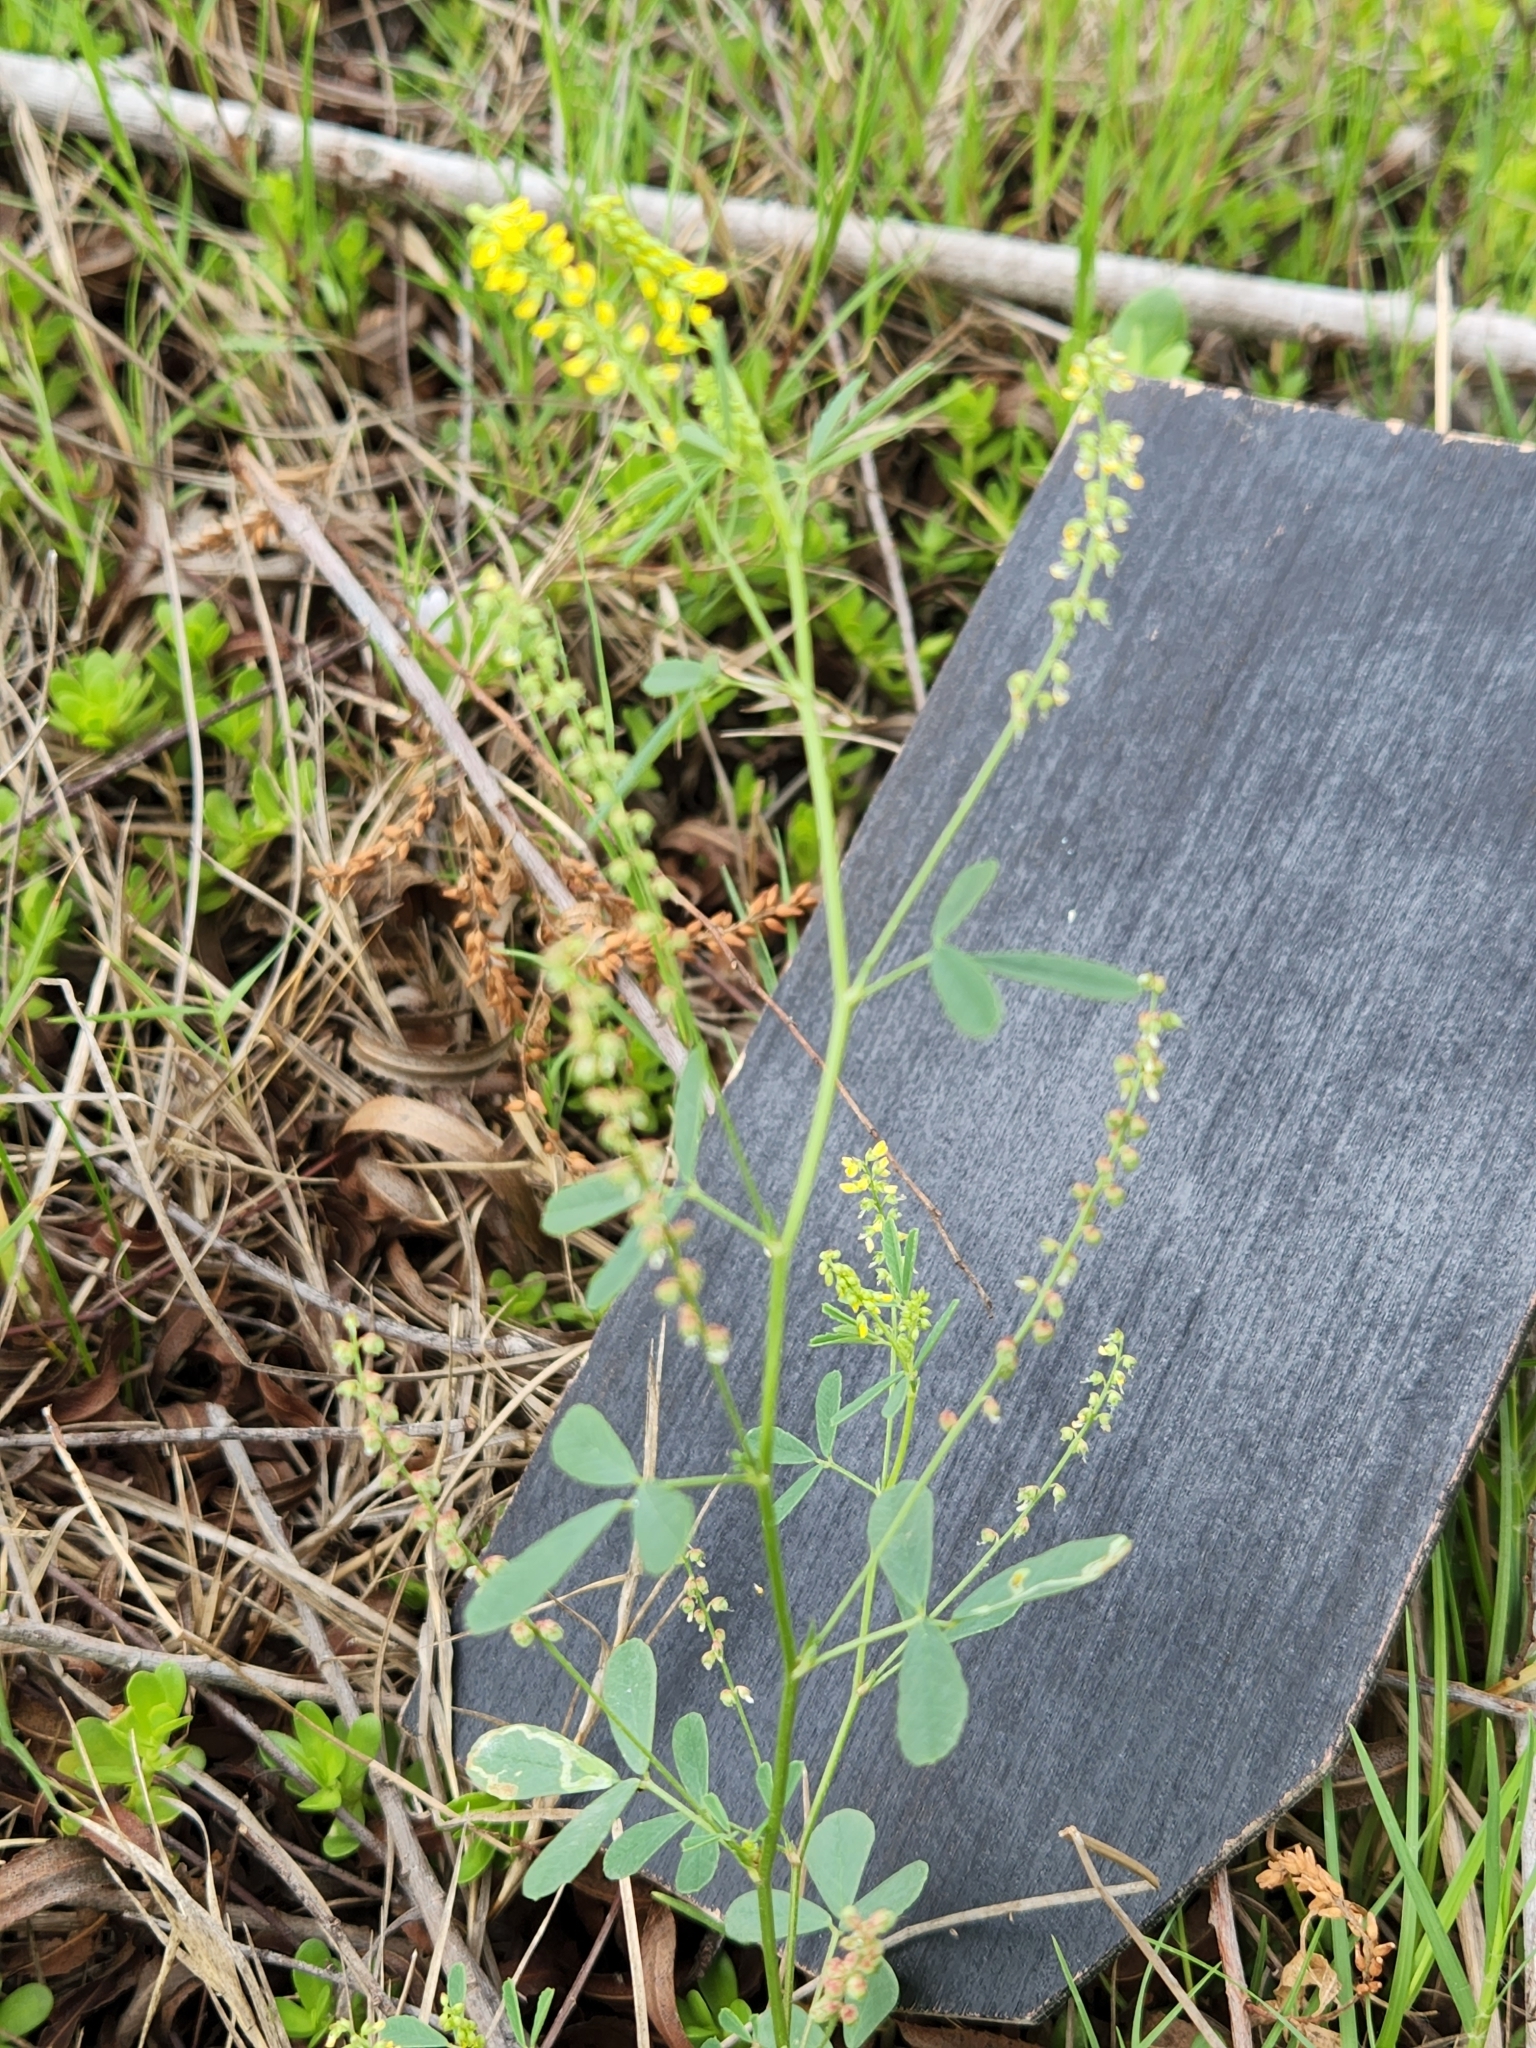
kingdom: Plantae
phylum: Tracheophyta
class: Magnoliopsida
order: Fabales
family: Fabaceae
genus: Melilotus
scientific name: Melilotus indicus
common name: Small melilot
